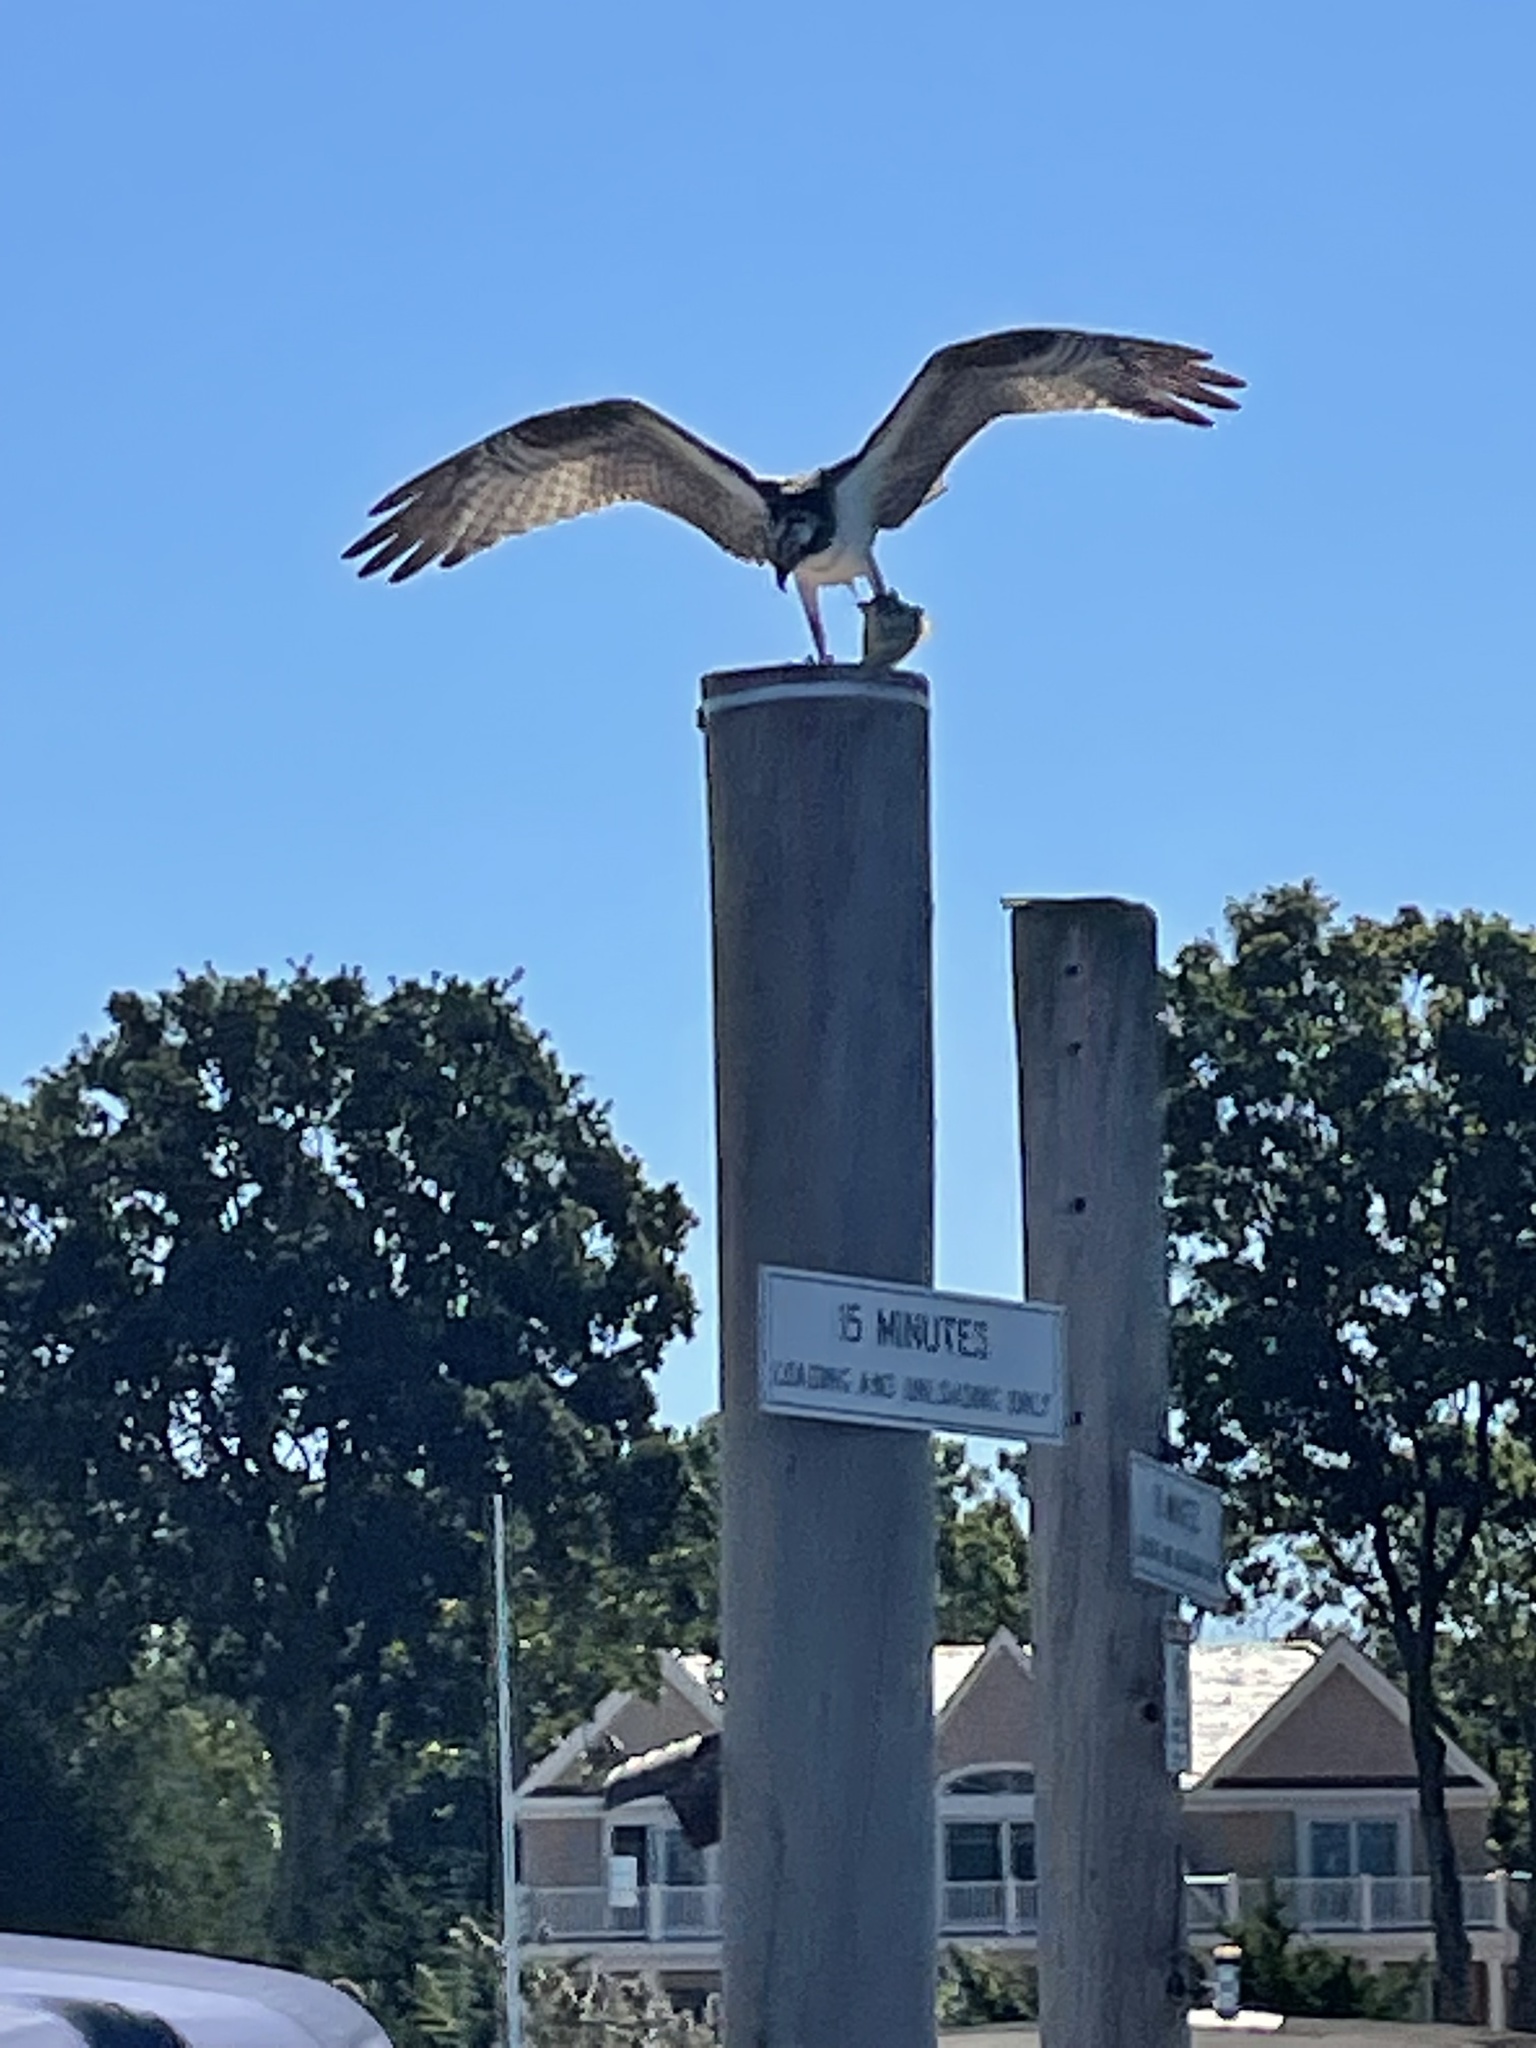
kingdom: Animalia
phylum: Chordata
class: Aves
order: Accipitriformes
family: Pandionidae
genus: Pandion
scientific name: Pandion haliaetus
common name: Osprey
